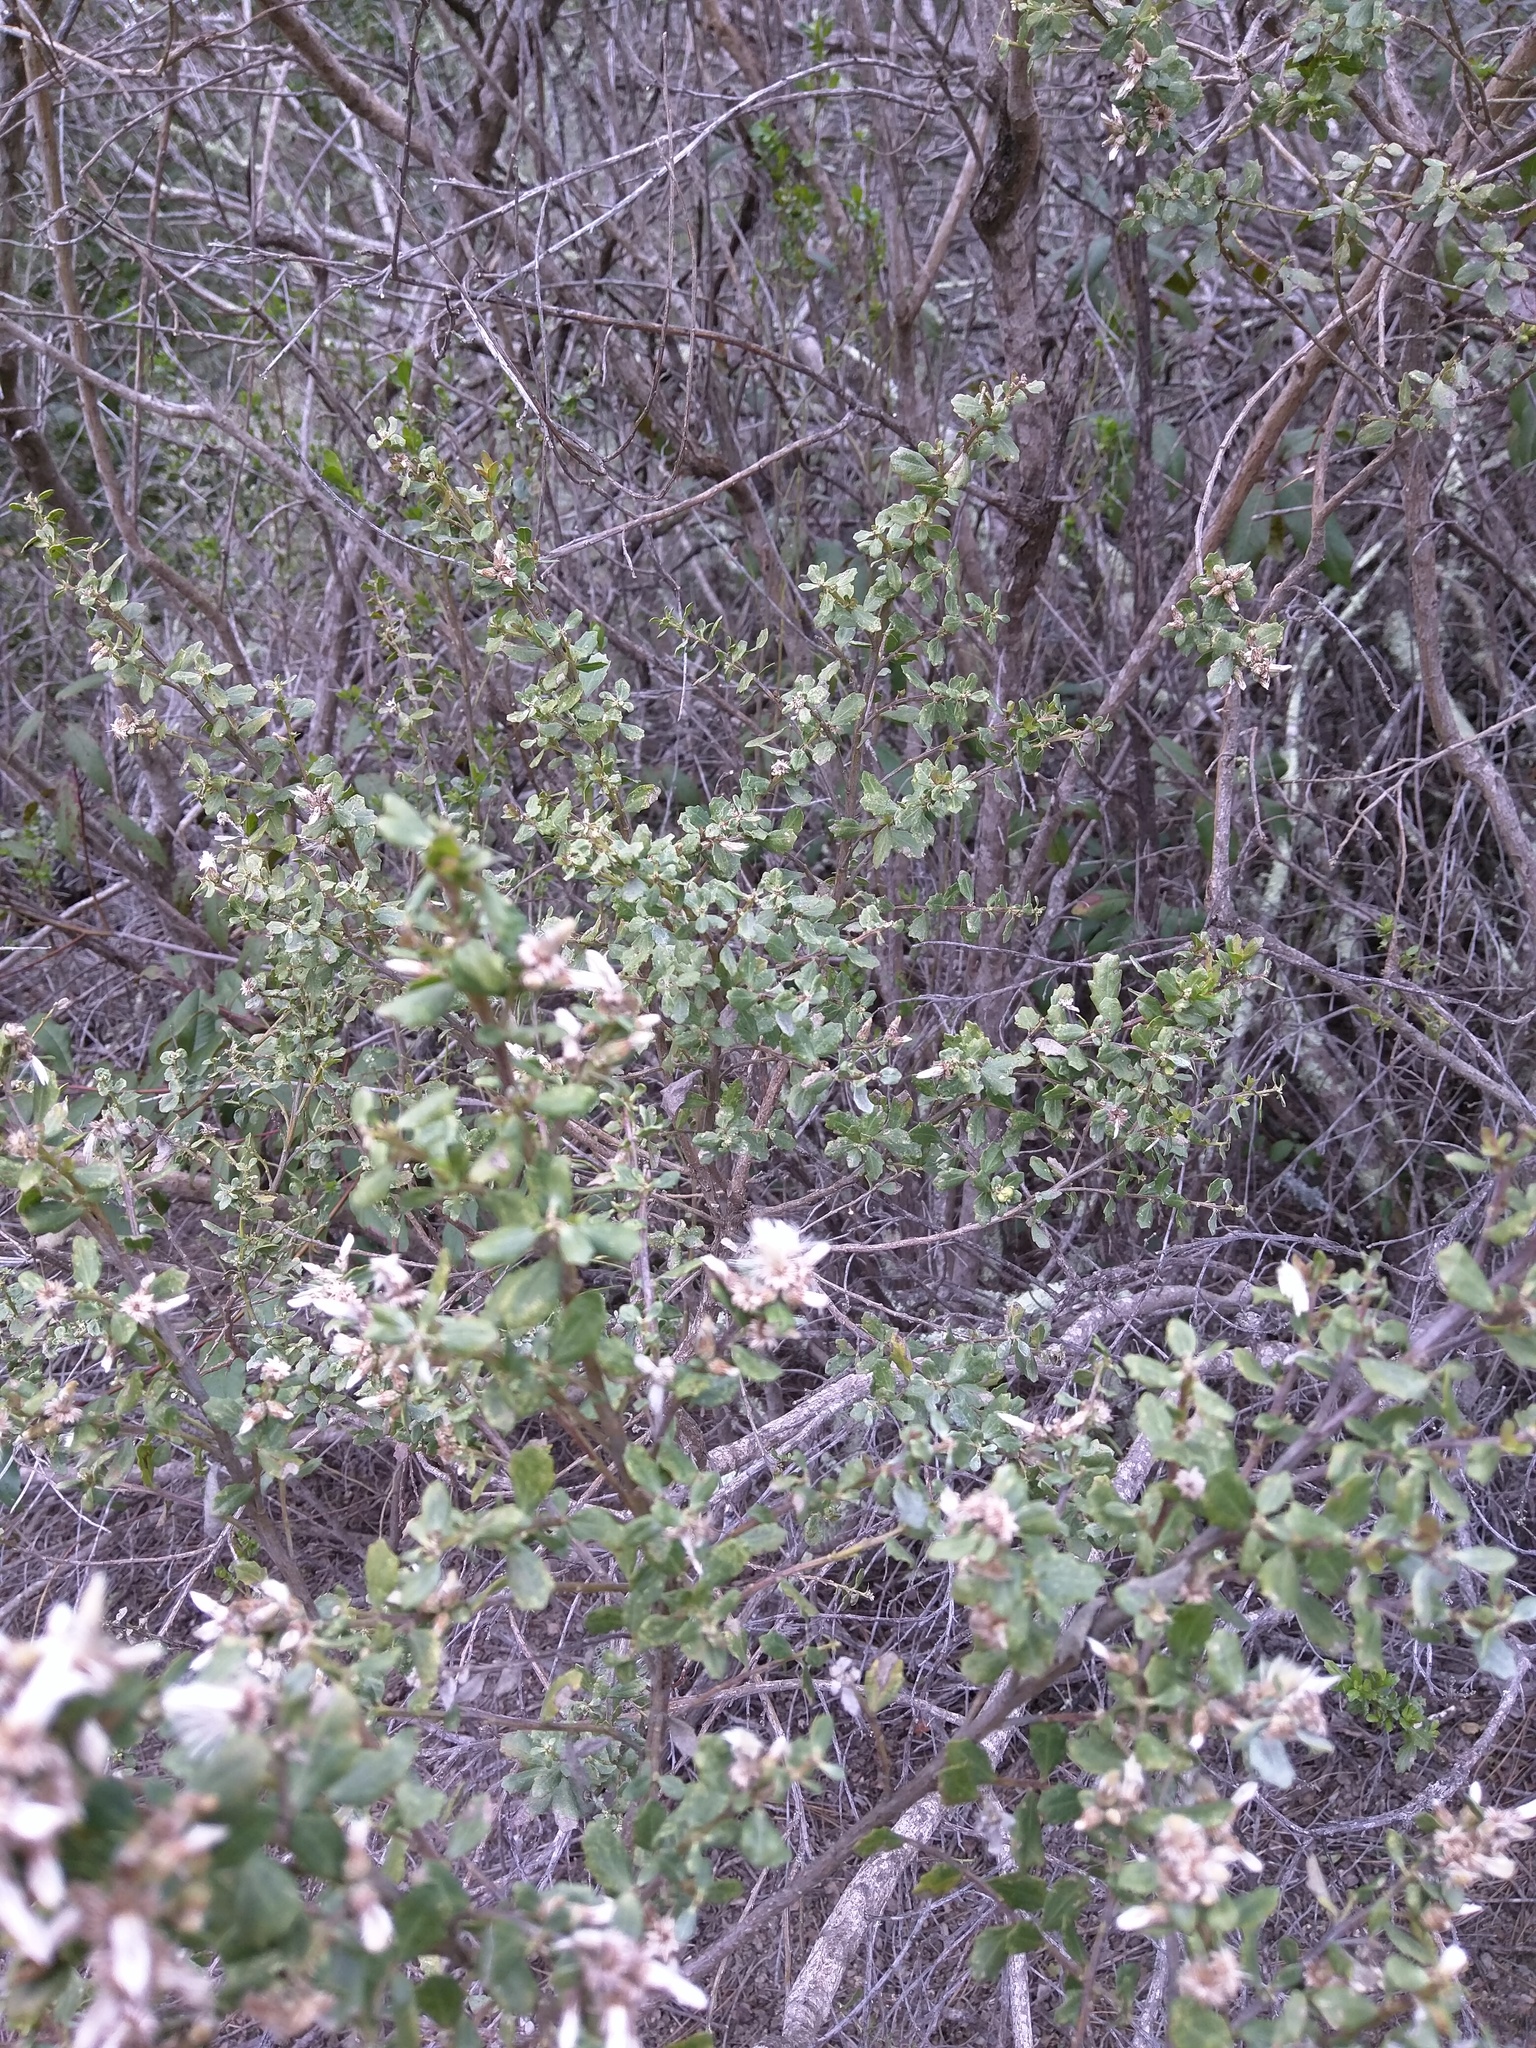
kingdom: Plantae
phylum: Tracheophyta
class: Magnoliopsida
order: Asterales
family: Asteraceae
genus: Baccharis
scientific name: Baccharis pilularis
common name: Coyotebrush
